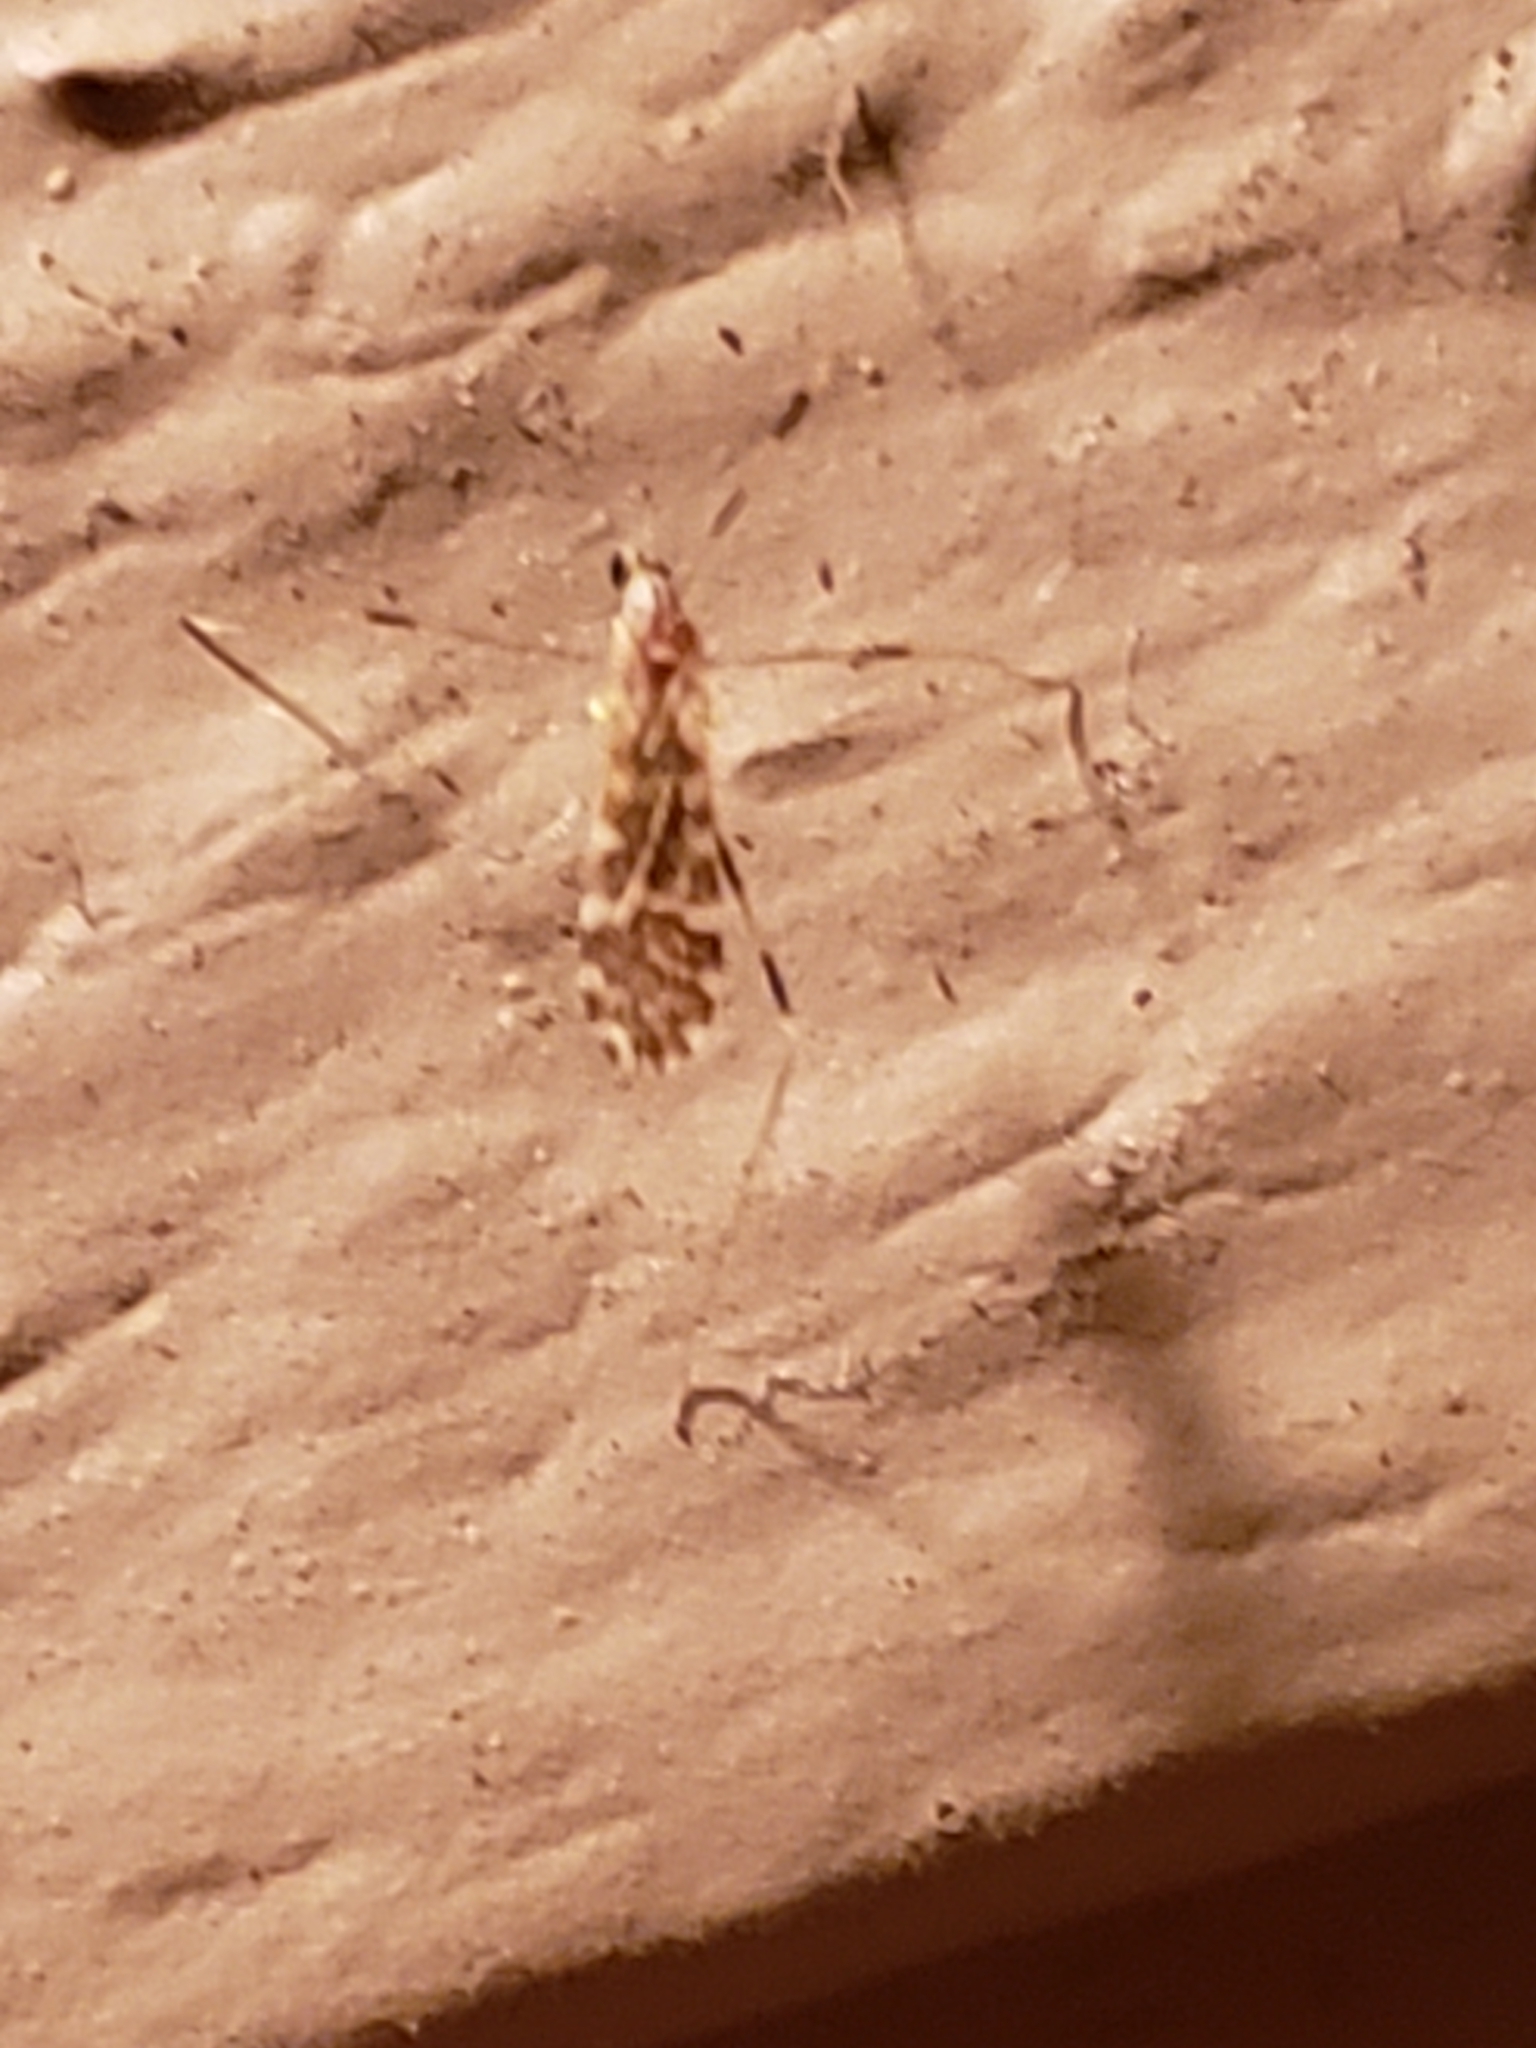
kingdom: Animalia
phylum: Arthropoda
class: Insecta
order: Diptera
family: Limoniidae
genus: Erioptera
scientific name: Erioptera caliptera
